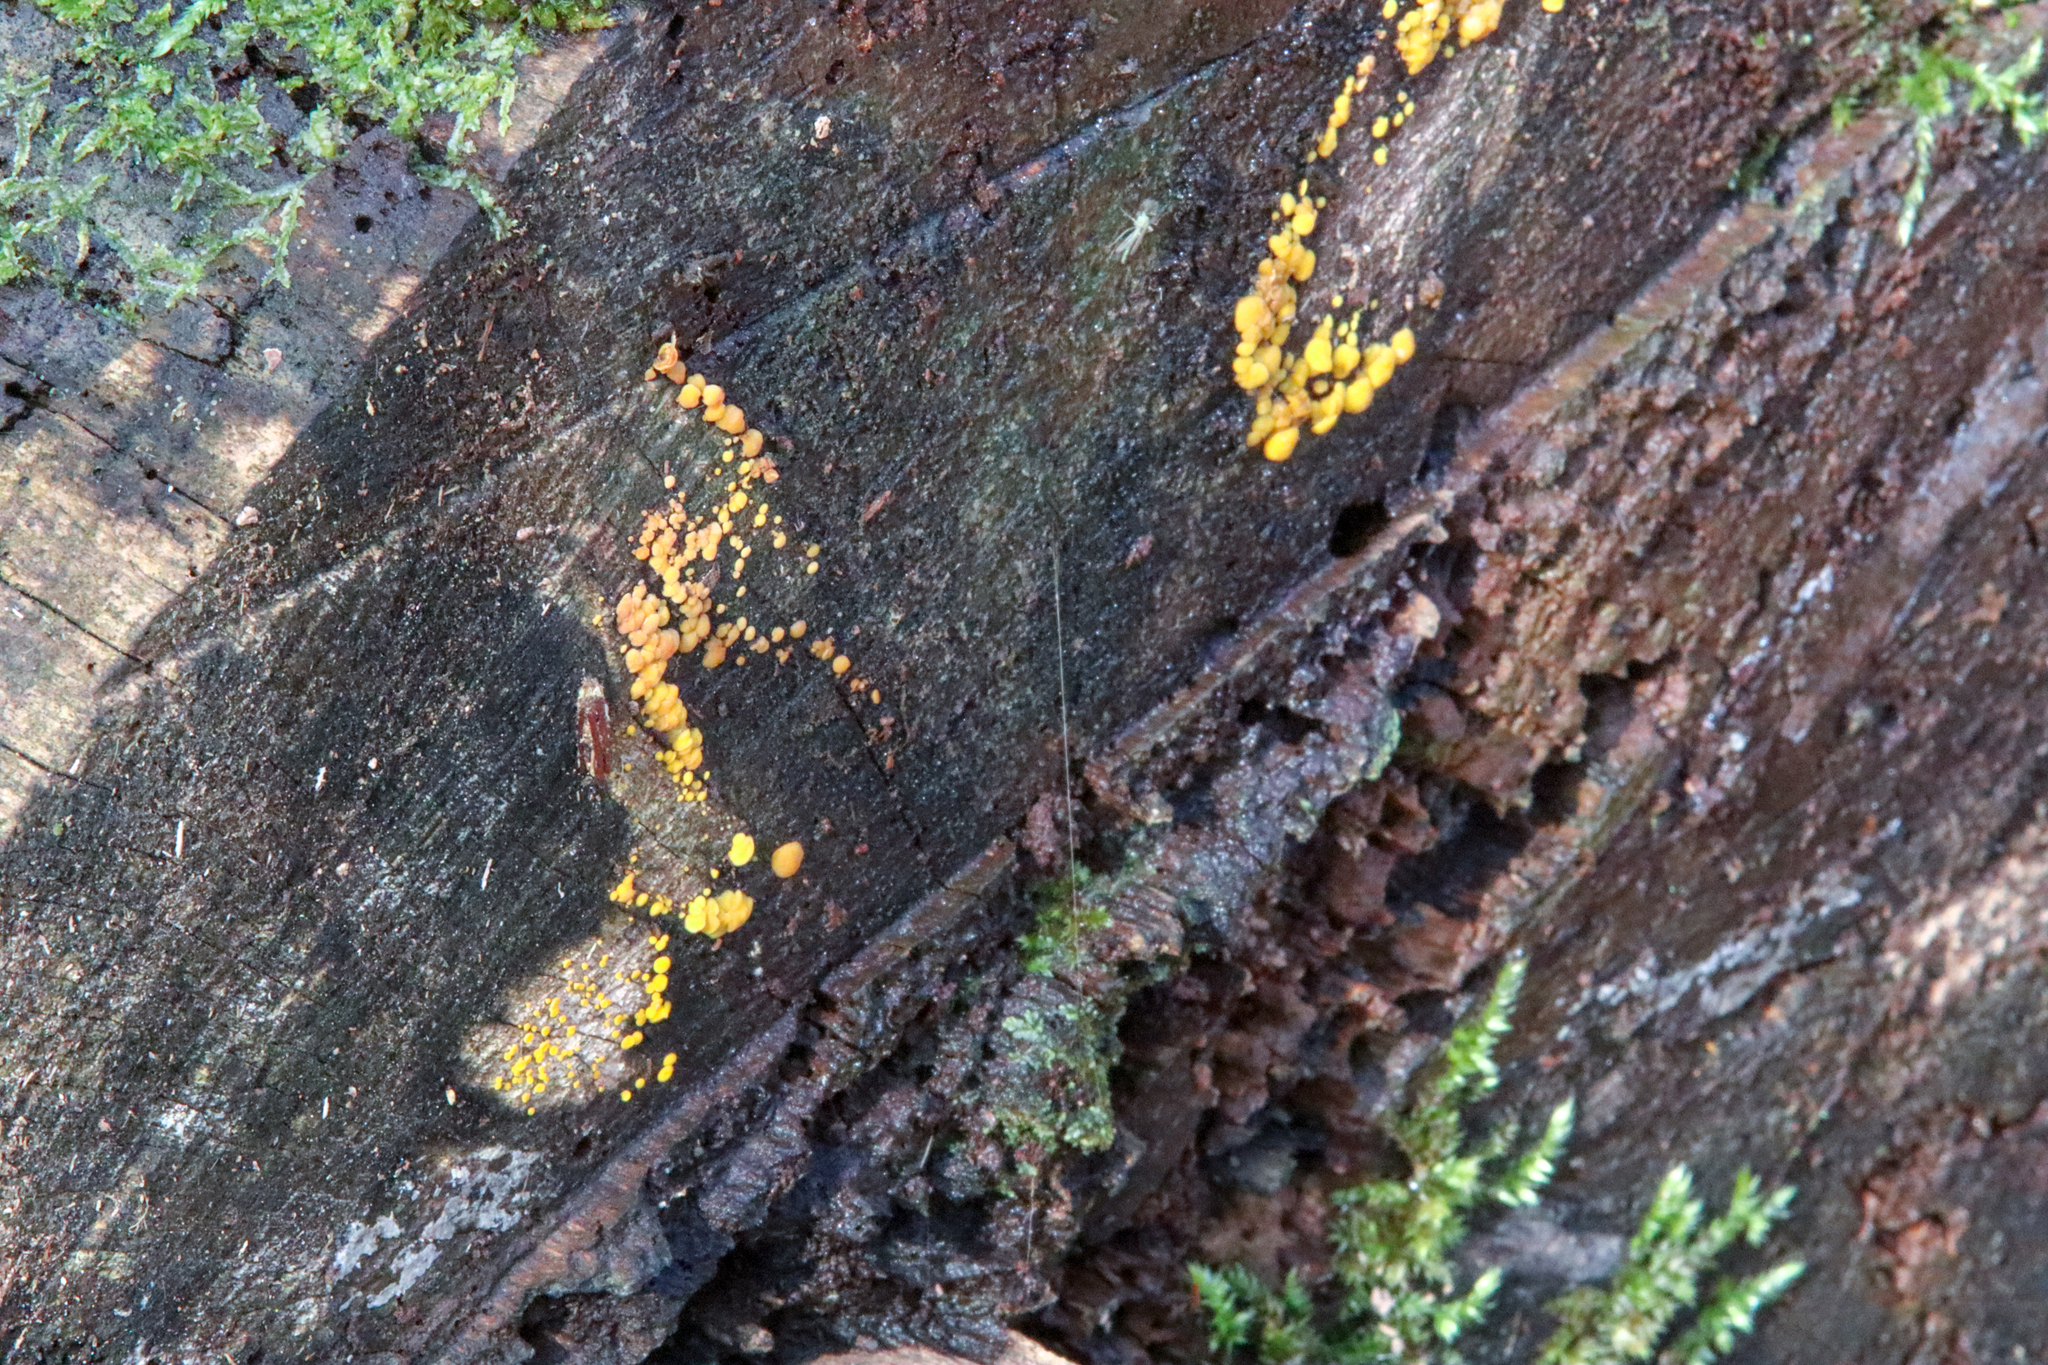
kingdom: Fungi
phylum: Ascomycota
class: Leotiomycetes
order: Helotiales
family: Pezizellaceae
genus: Calycina
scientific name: Calycina citrina
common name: Yellow fairy cups
